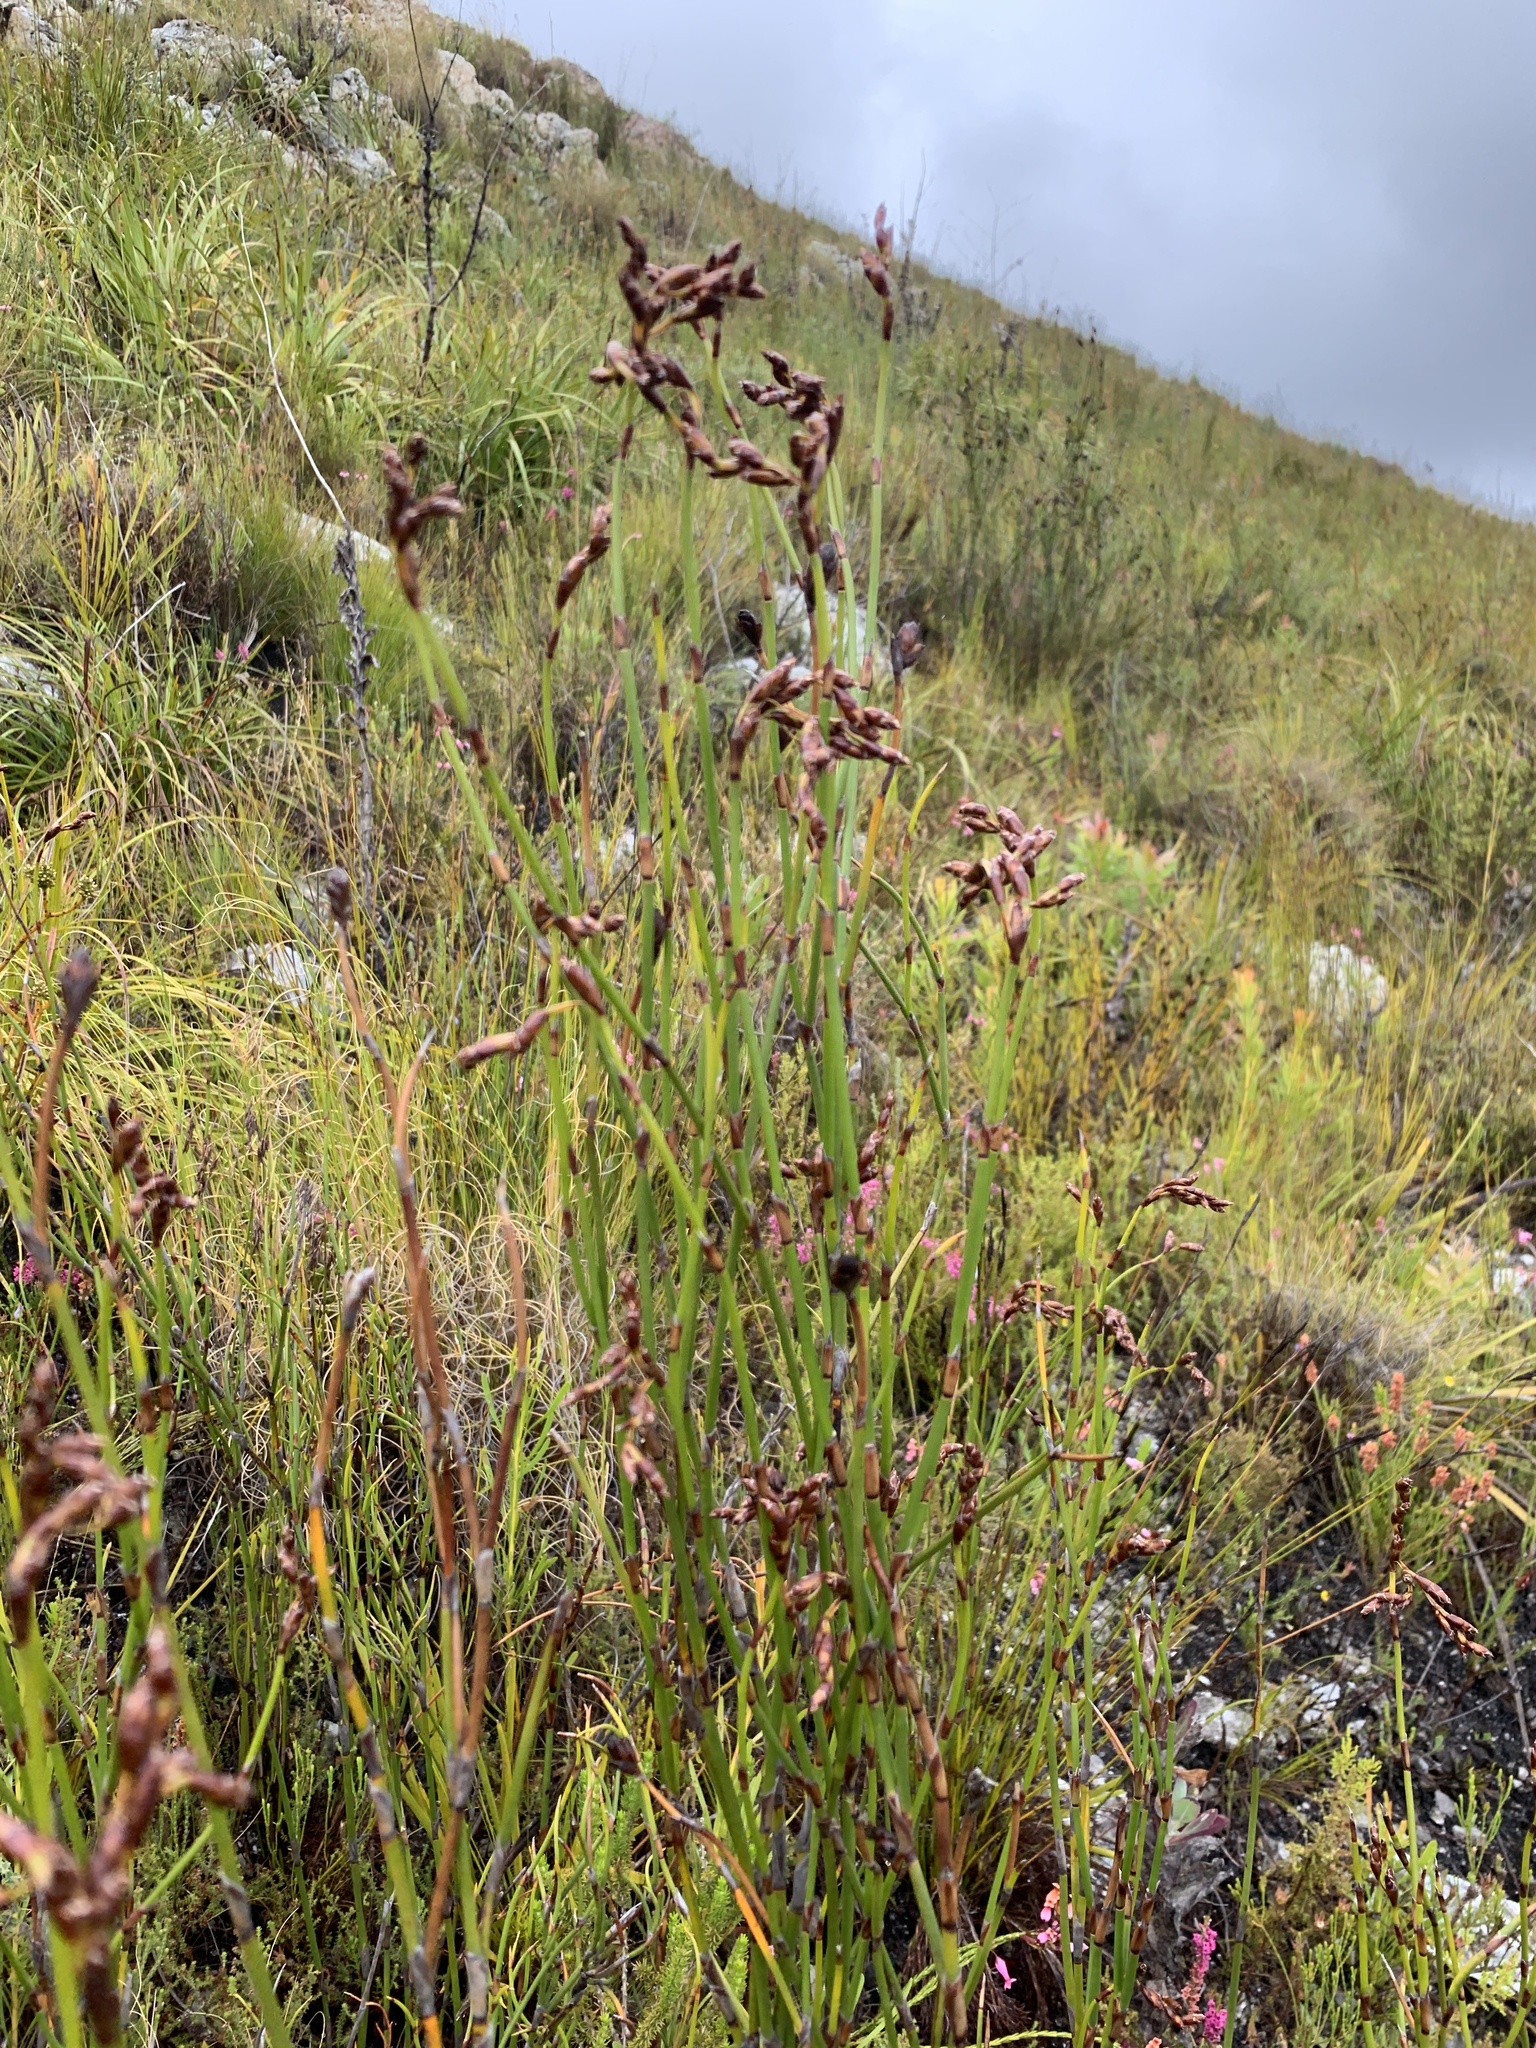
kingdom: Plantae
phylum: Tracheophyta
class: Liliopsida
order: Poales
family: Restionaceae
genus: Restio
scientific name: Restio egregius
